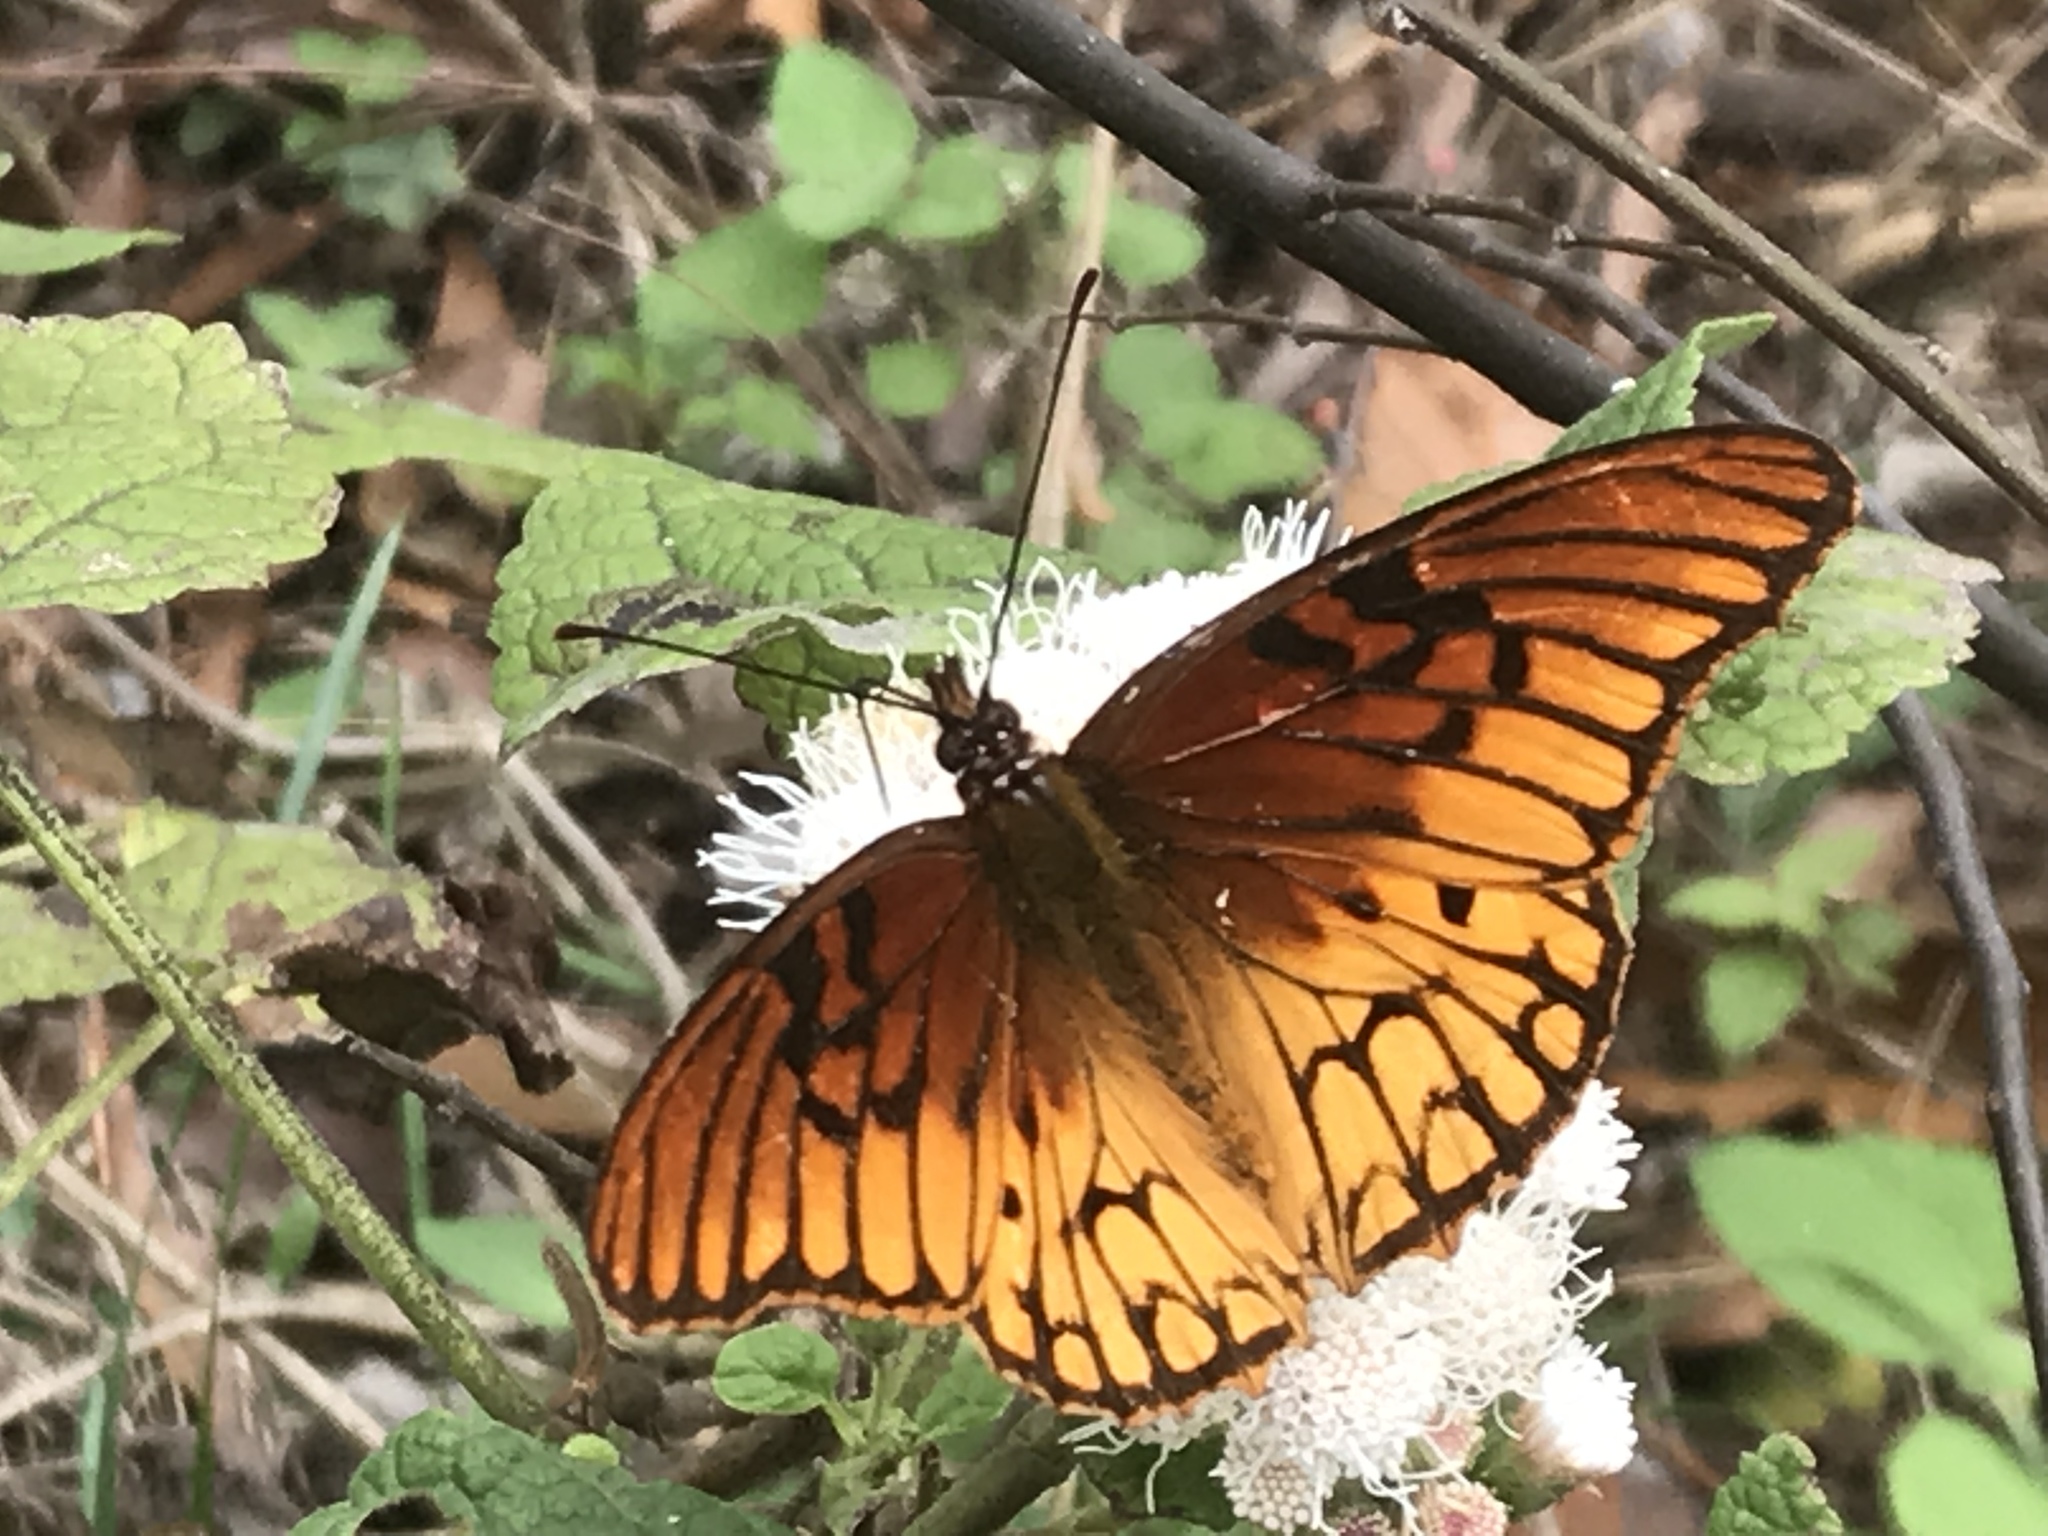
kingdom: Animalia
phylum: Arthropoda
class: Insecta
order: Lepidoptera
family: Nymphalidae
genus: Dione
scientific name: Dione moneta
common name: Mexican silverspot
